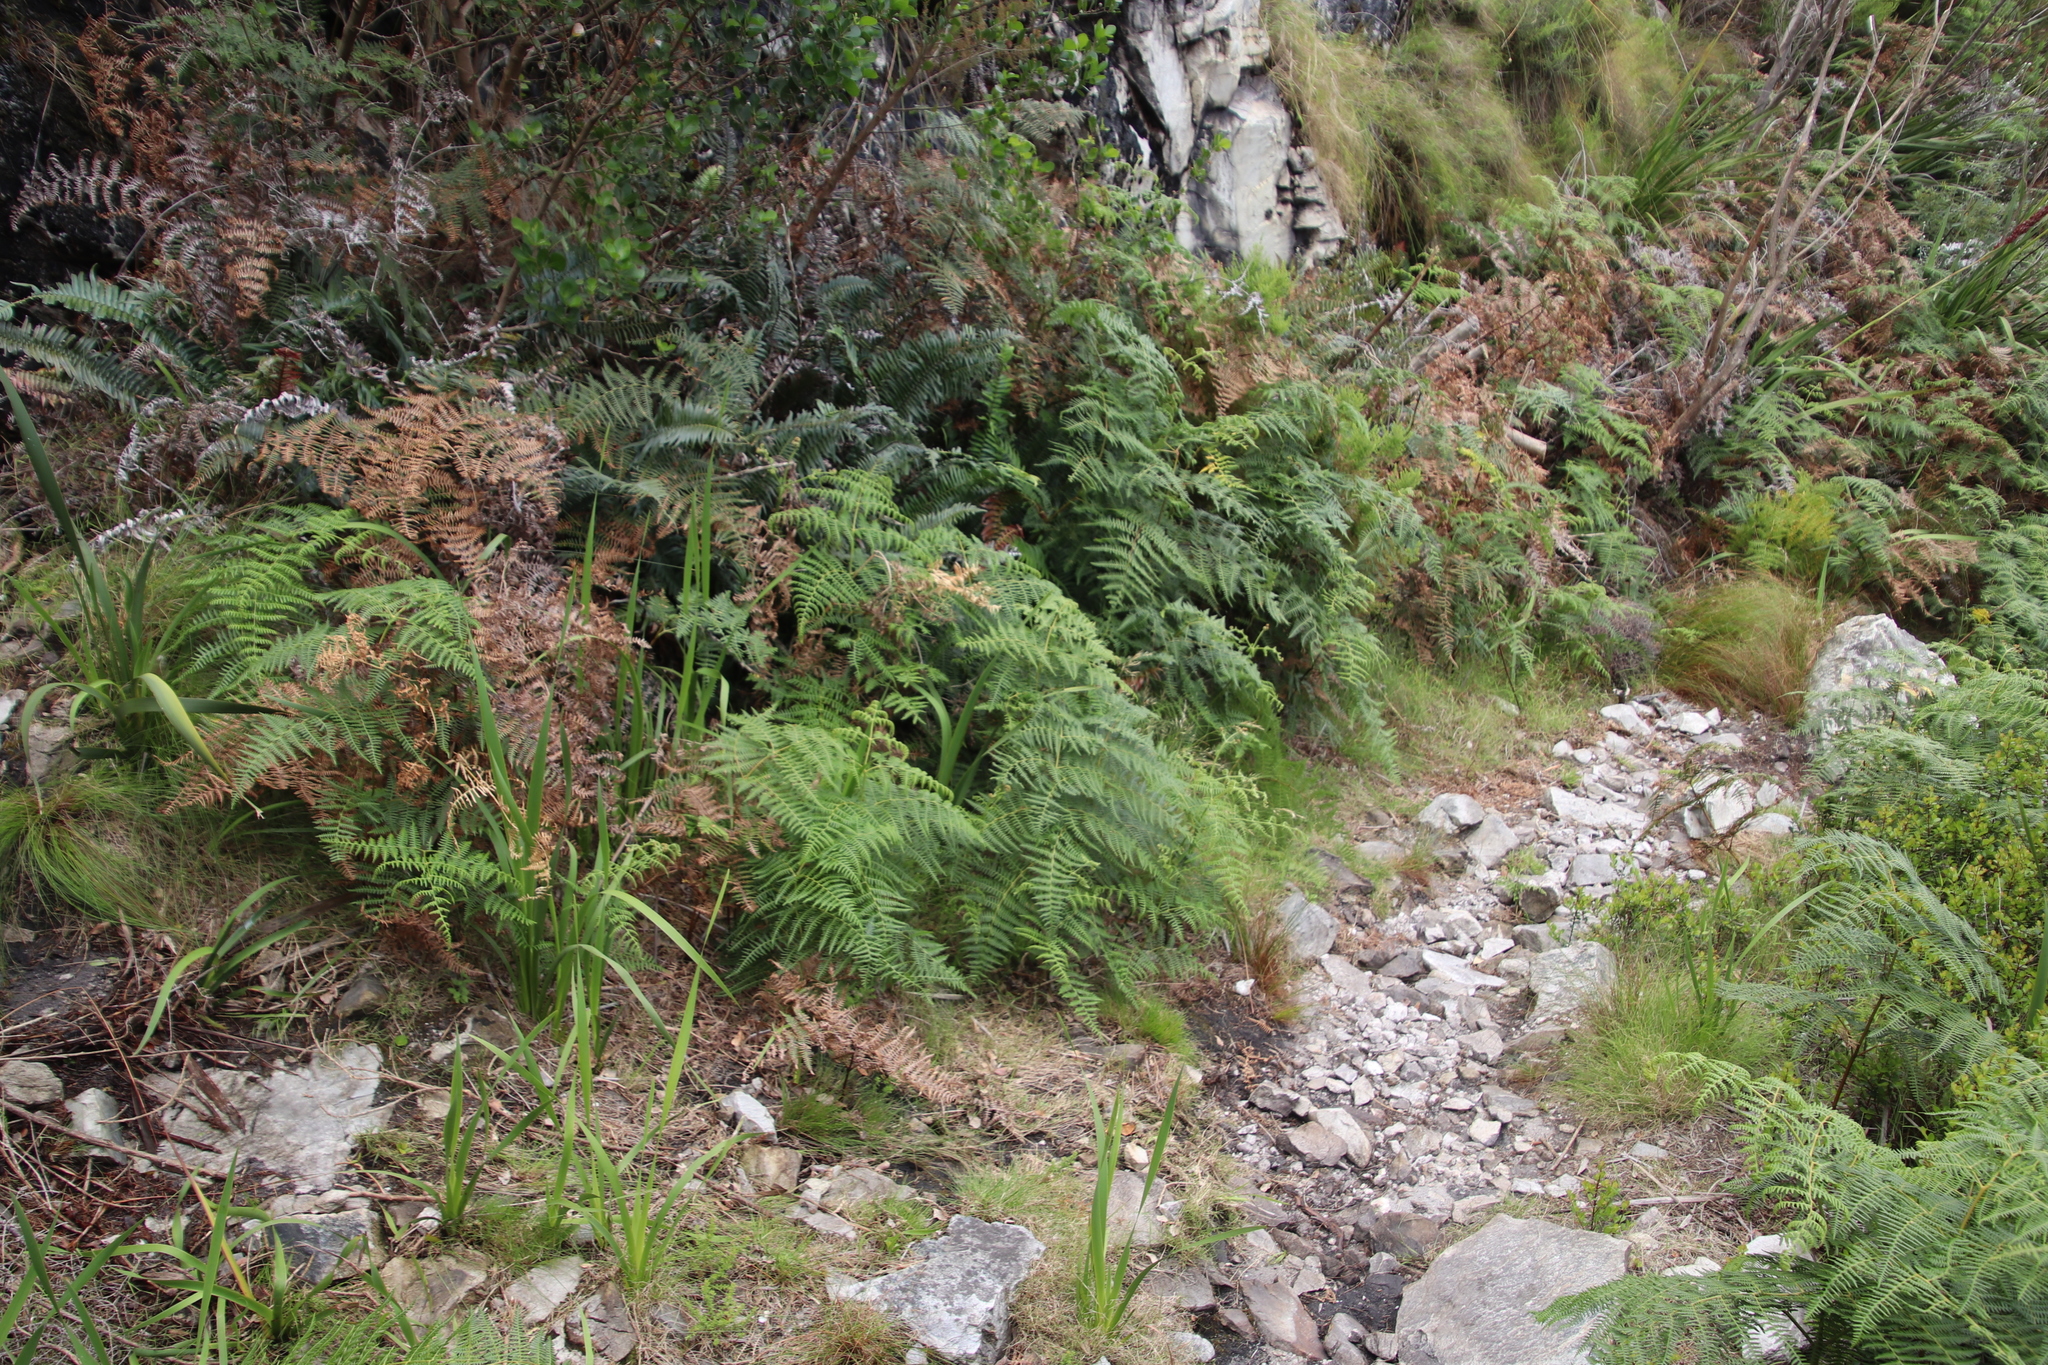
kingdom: Plantae
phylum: Tracheophyta
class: Polypodiopsida
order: Polypodiales
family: Dennstaedtiaceae
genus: Pteridium
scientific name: Pteridium aquilinum
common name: Bracken
